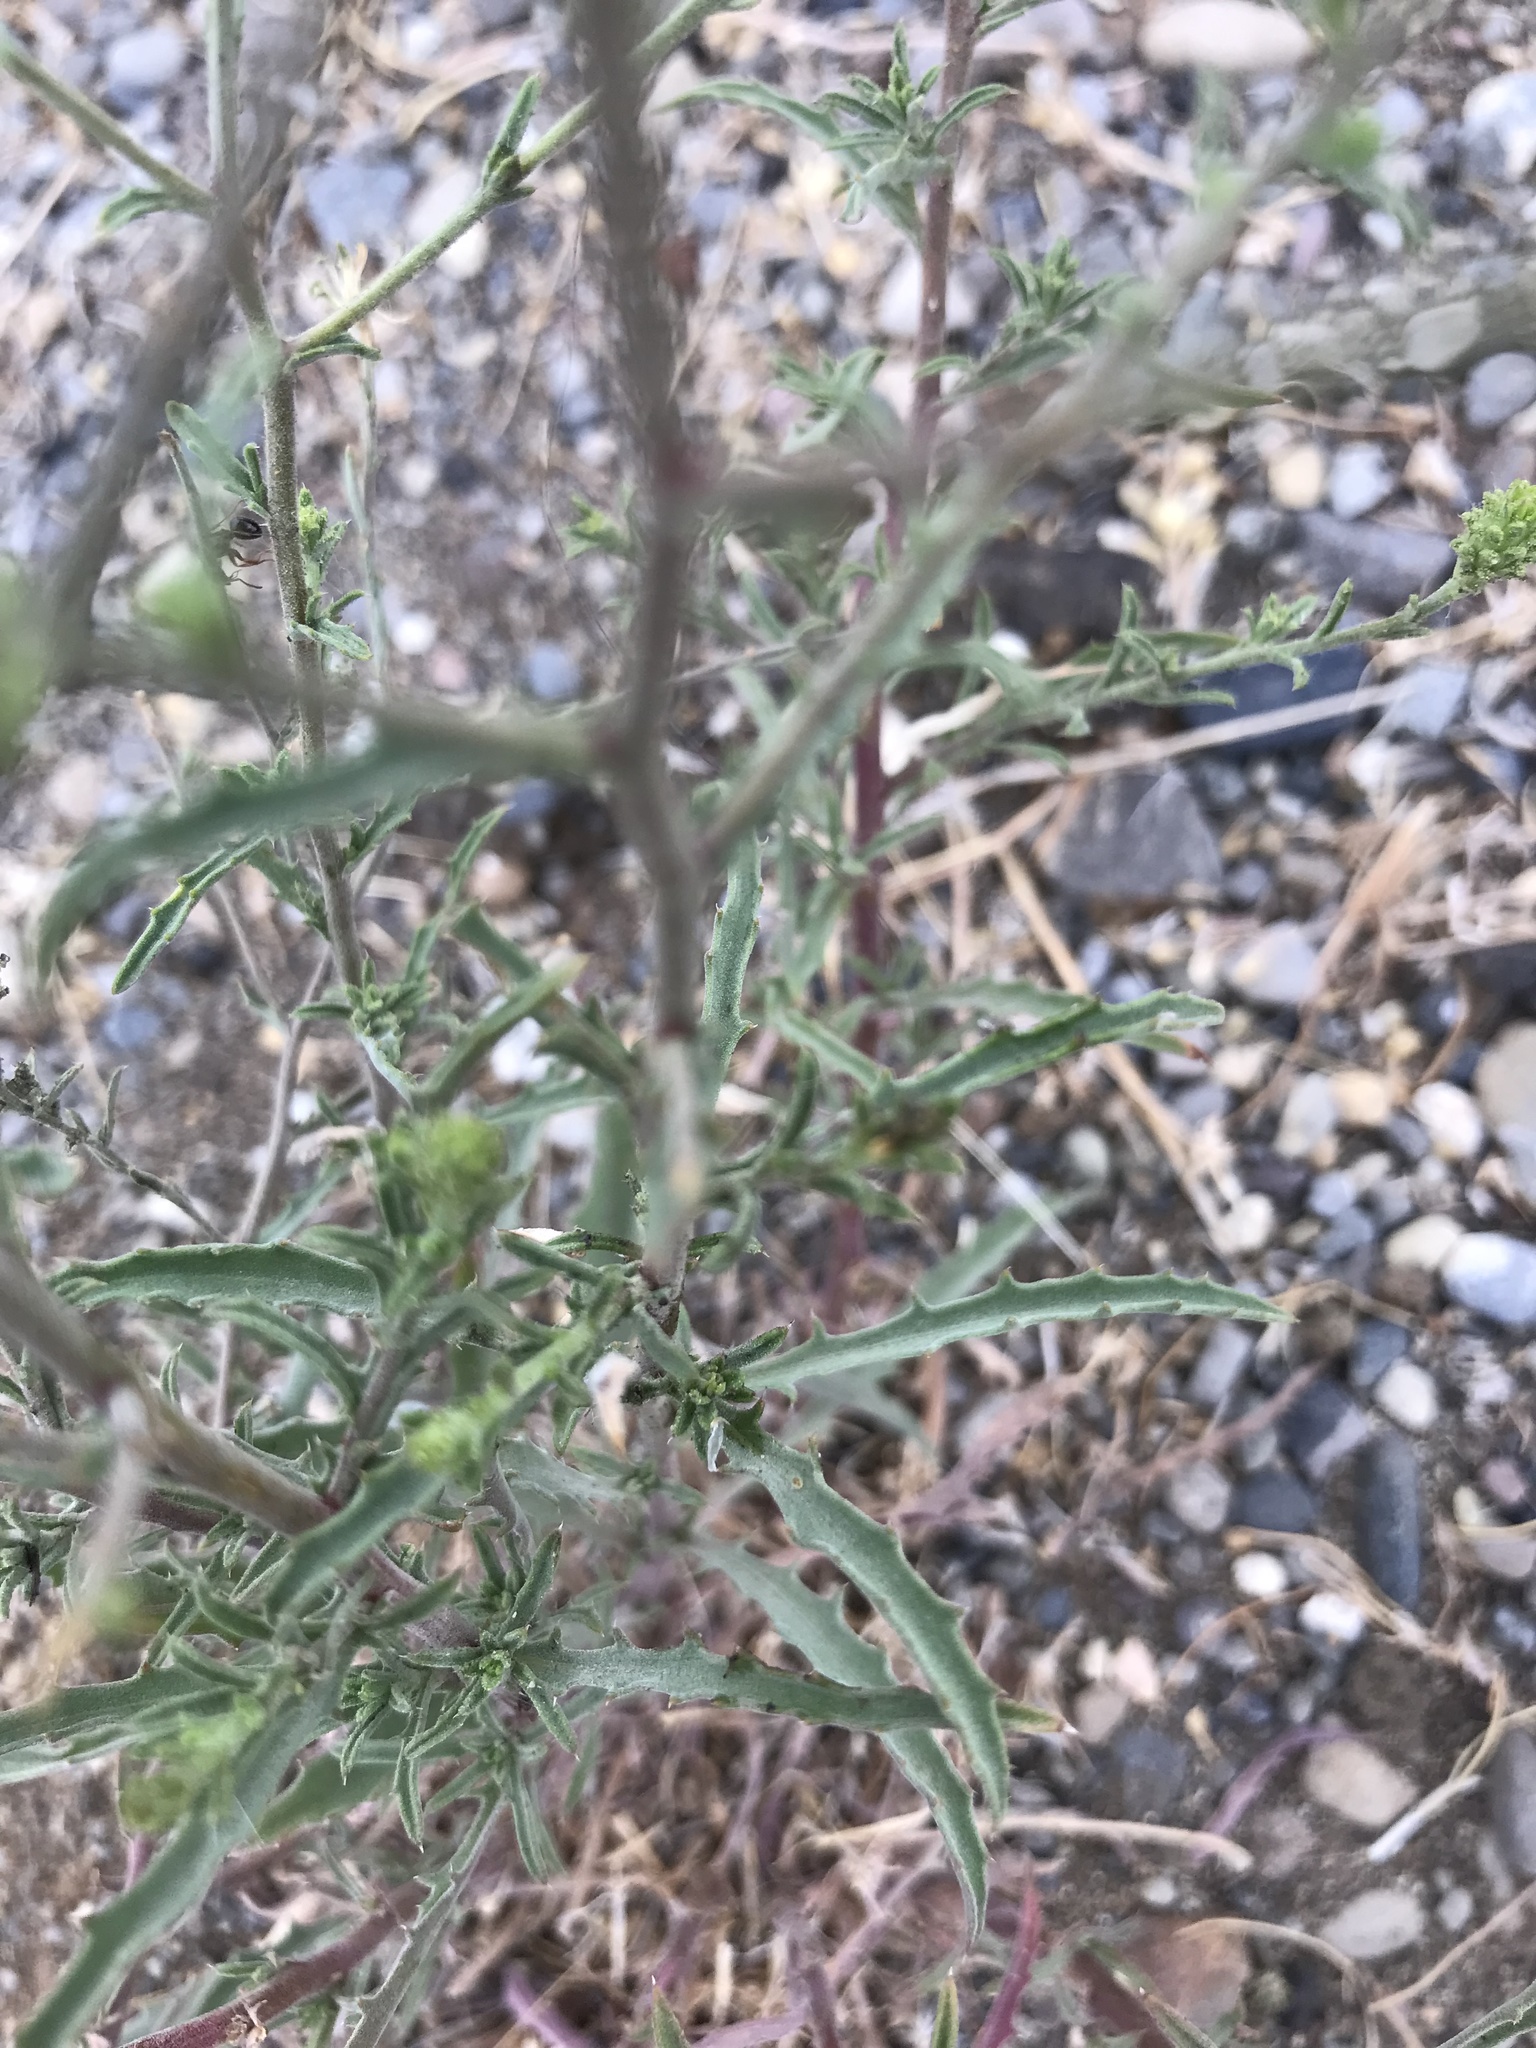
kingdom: Plantae
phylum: Tracheophyta
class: Magnoliopsida
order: Asterales
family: Asteraceae
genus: Dieteria
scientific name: Dieteria canescens
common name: Hoary-aster
